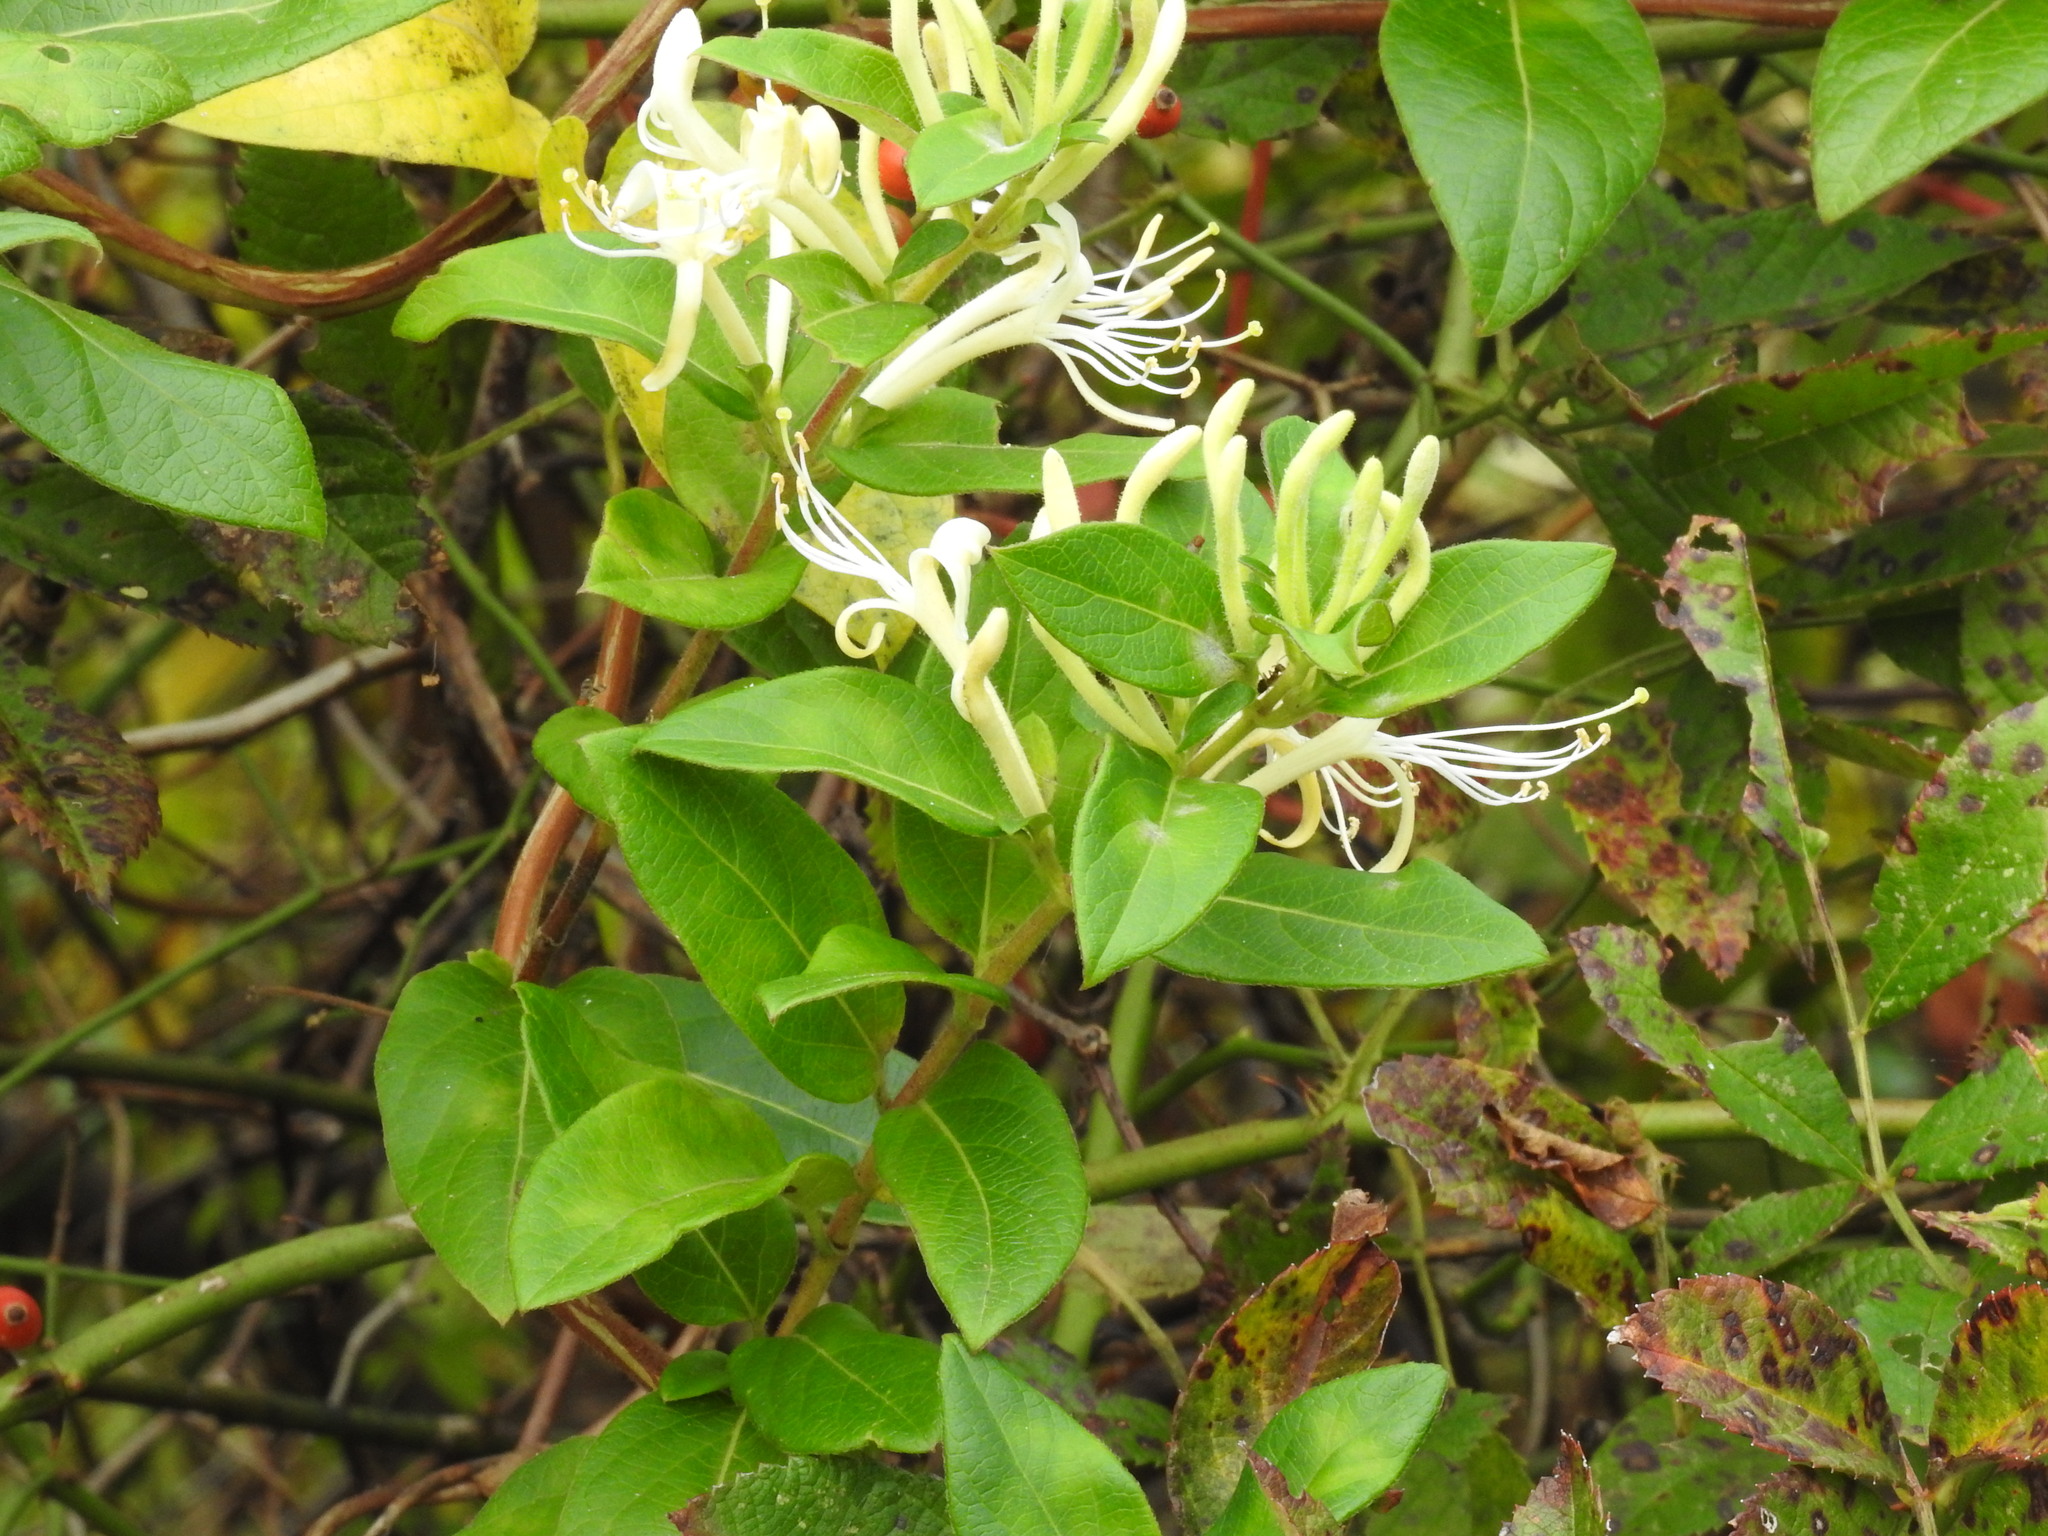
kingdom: Plantae
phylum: Tracheophyta
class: Magnoliopsida
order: Dipsacales
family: Caprifoliaceae
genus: Lonicera
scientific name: Lonicera japonica
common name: Japanese honeysuckle
